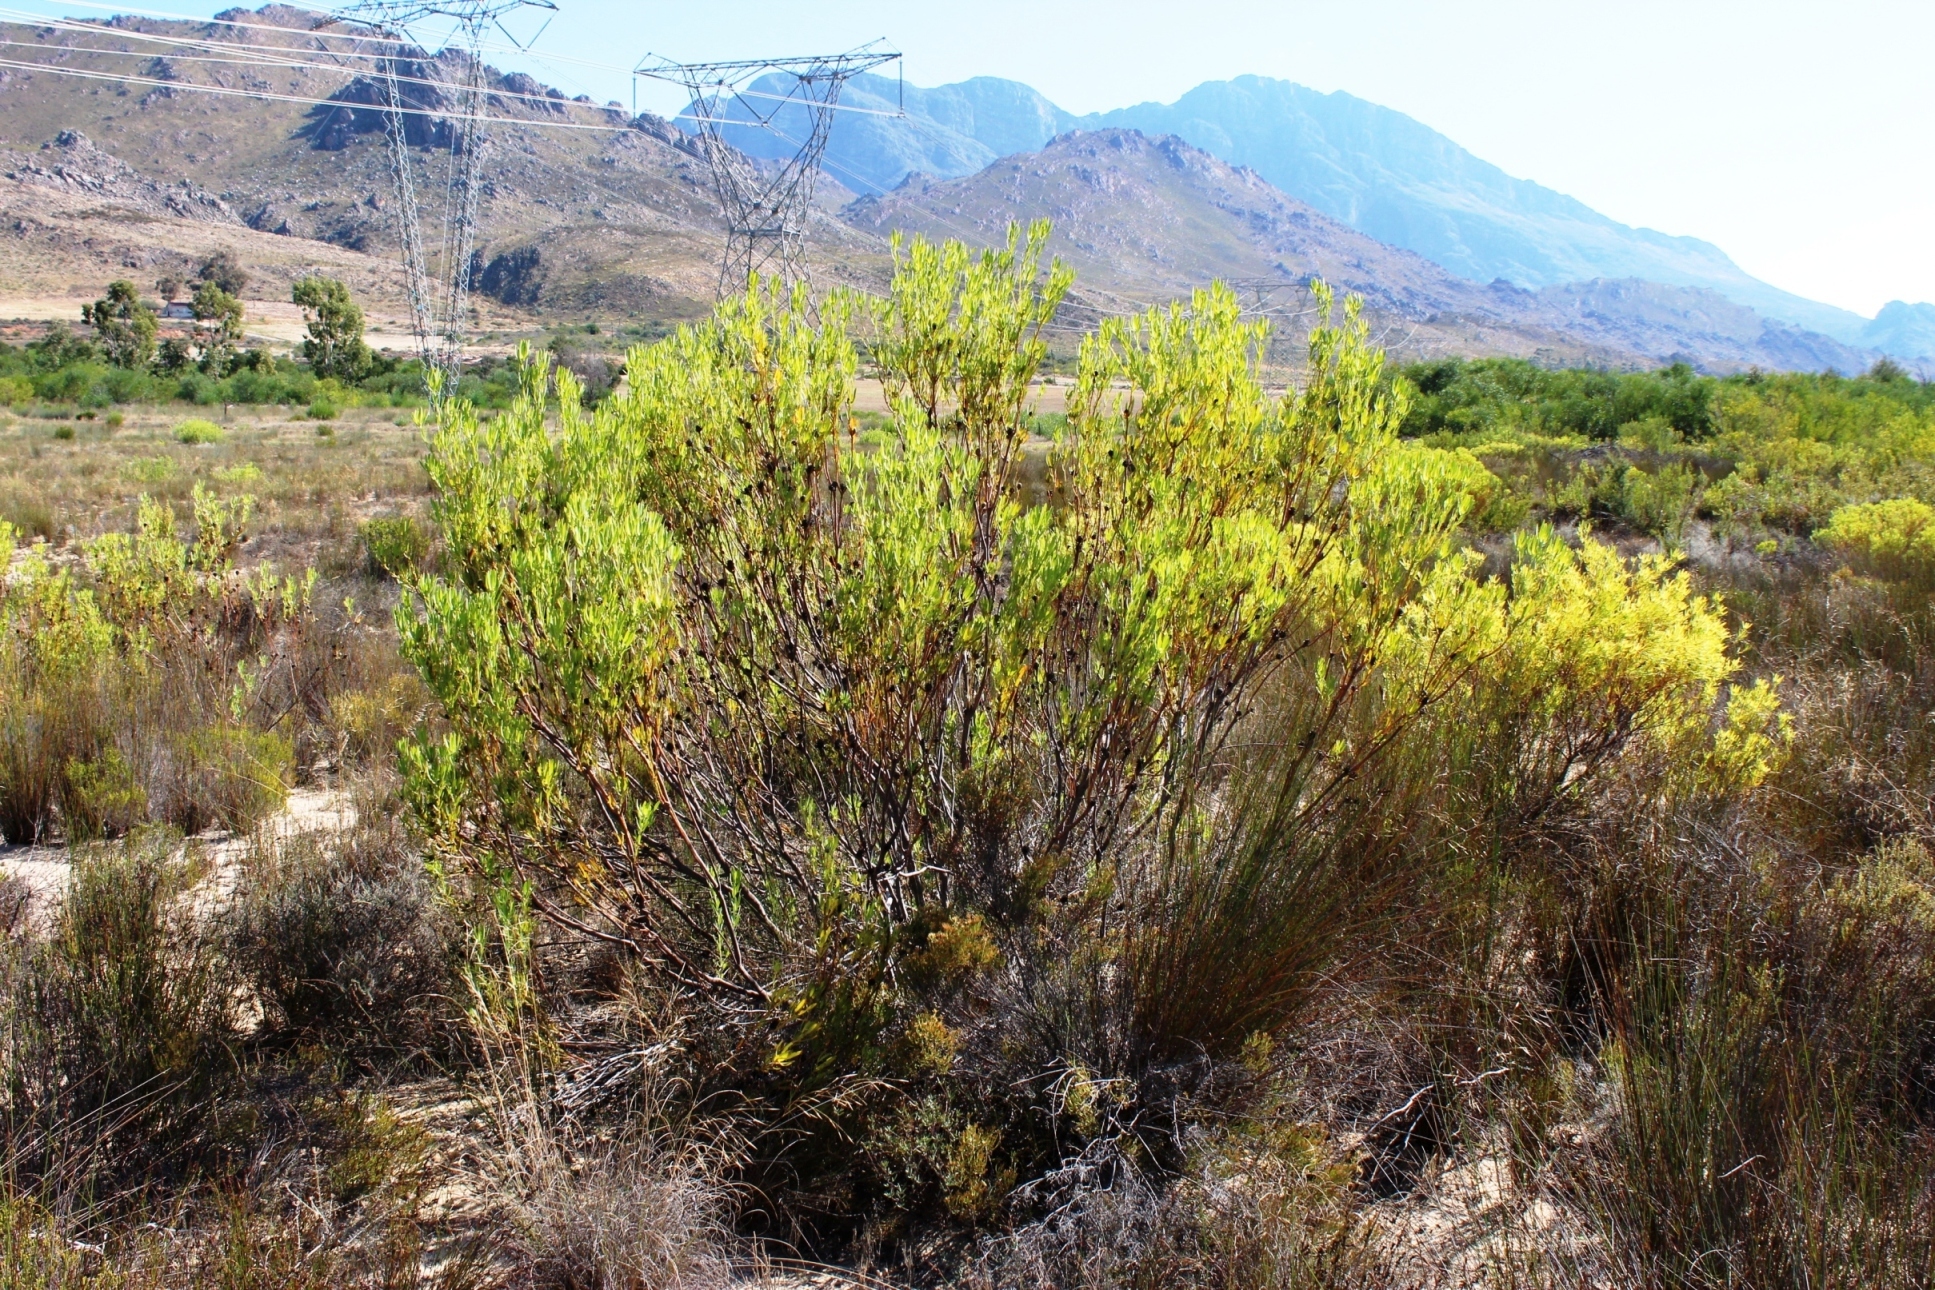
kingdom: Plantae
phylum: Tracheophyta
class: Magnoliopsida
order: Proteales
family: Proteaceae
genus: Leucadendron
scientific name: Leucadendron salignum
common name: Common sunshine conebush
